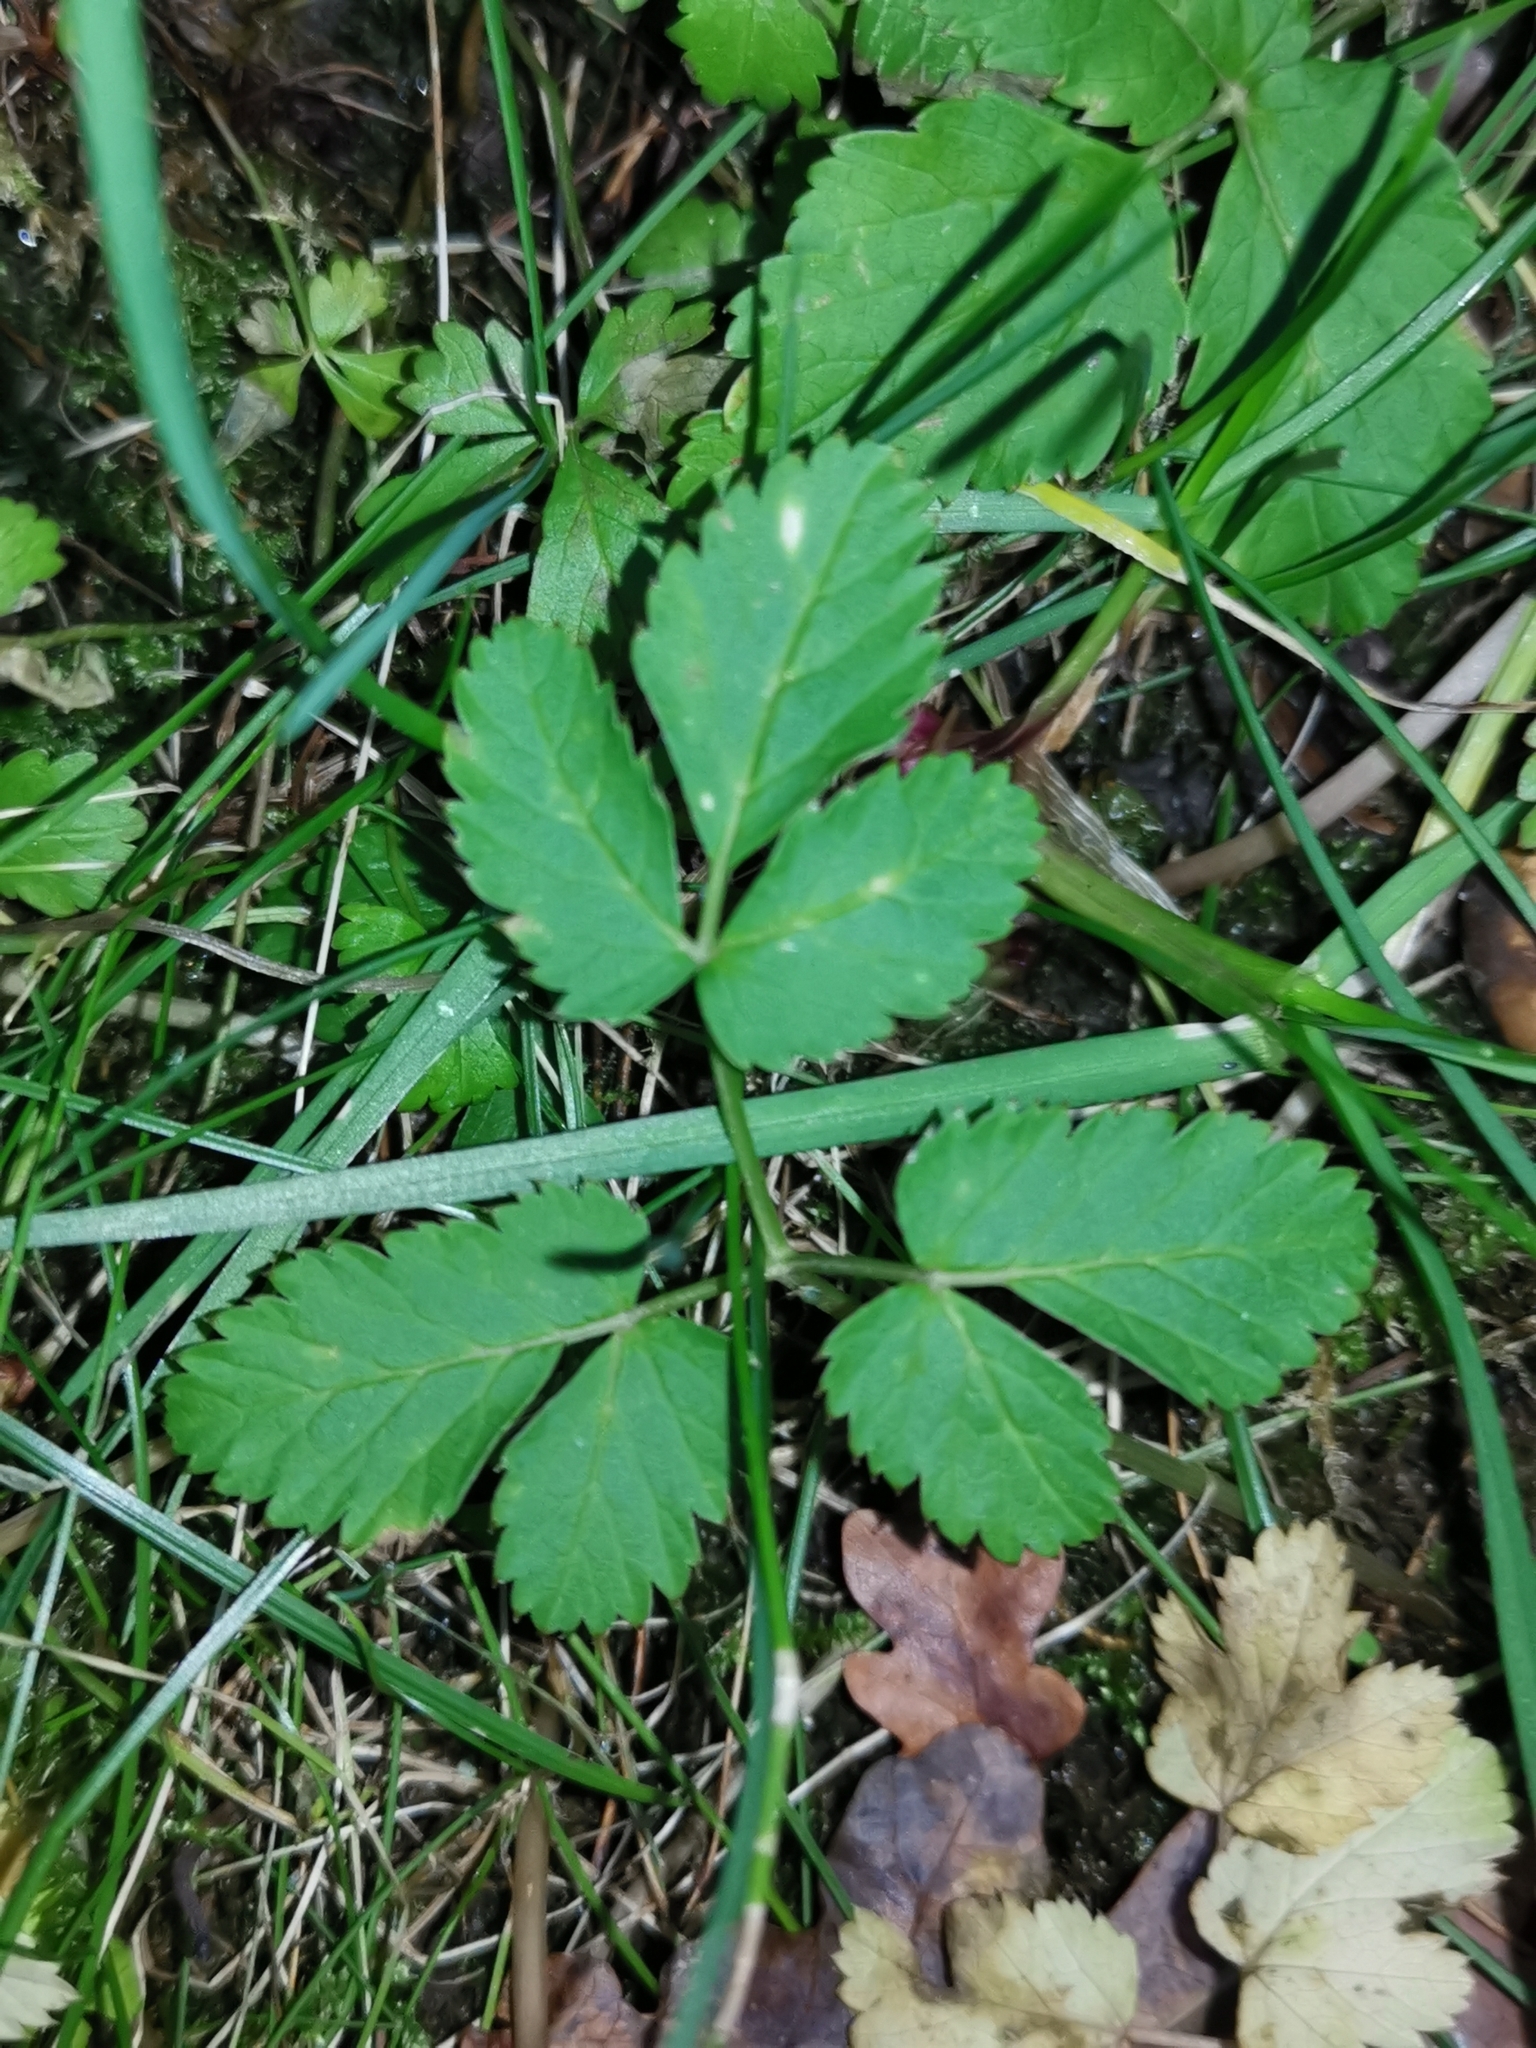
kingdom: Plantae
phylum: Tracheophyta
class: Magnoliopsida
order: Apiales
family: Apiaceae
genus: Aegopodium
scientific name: Aegopodium podagraria
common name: Ground-elder
